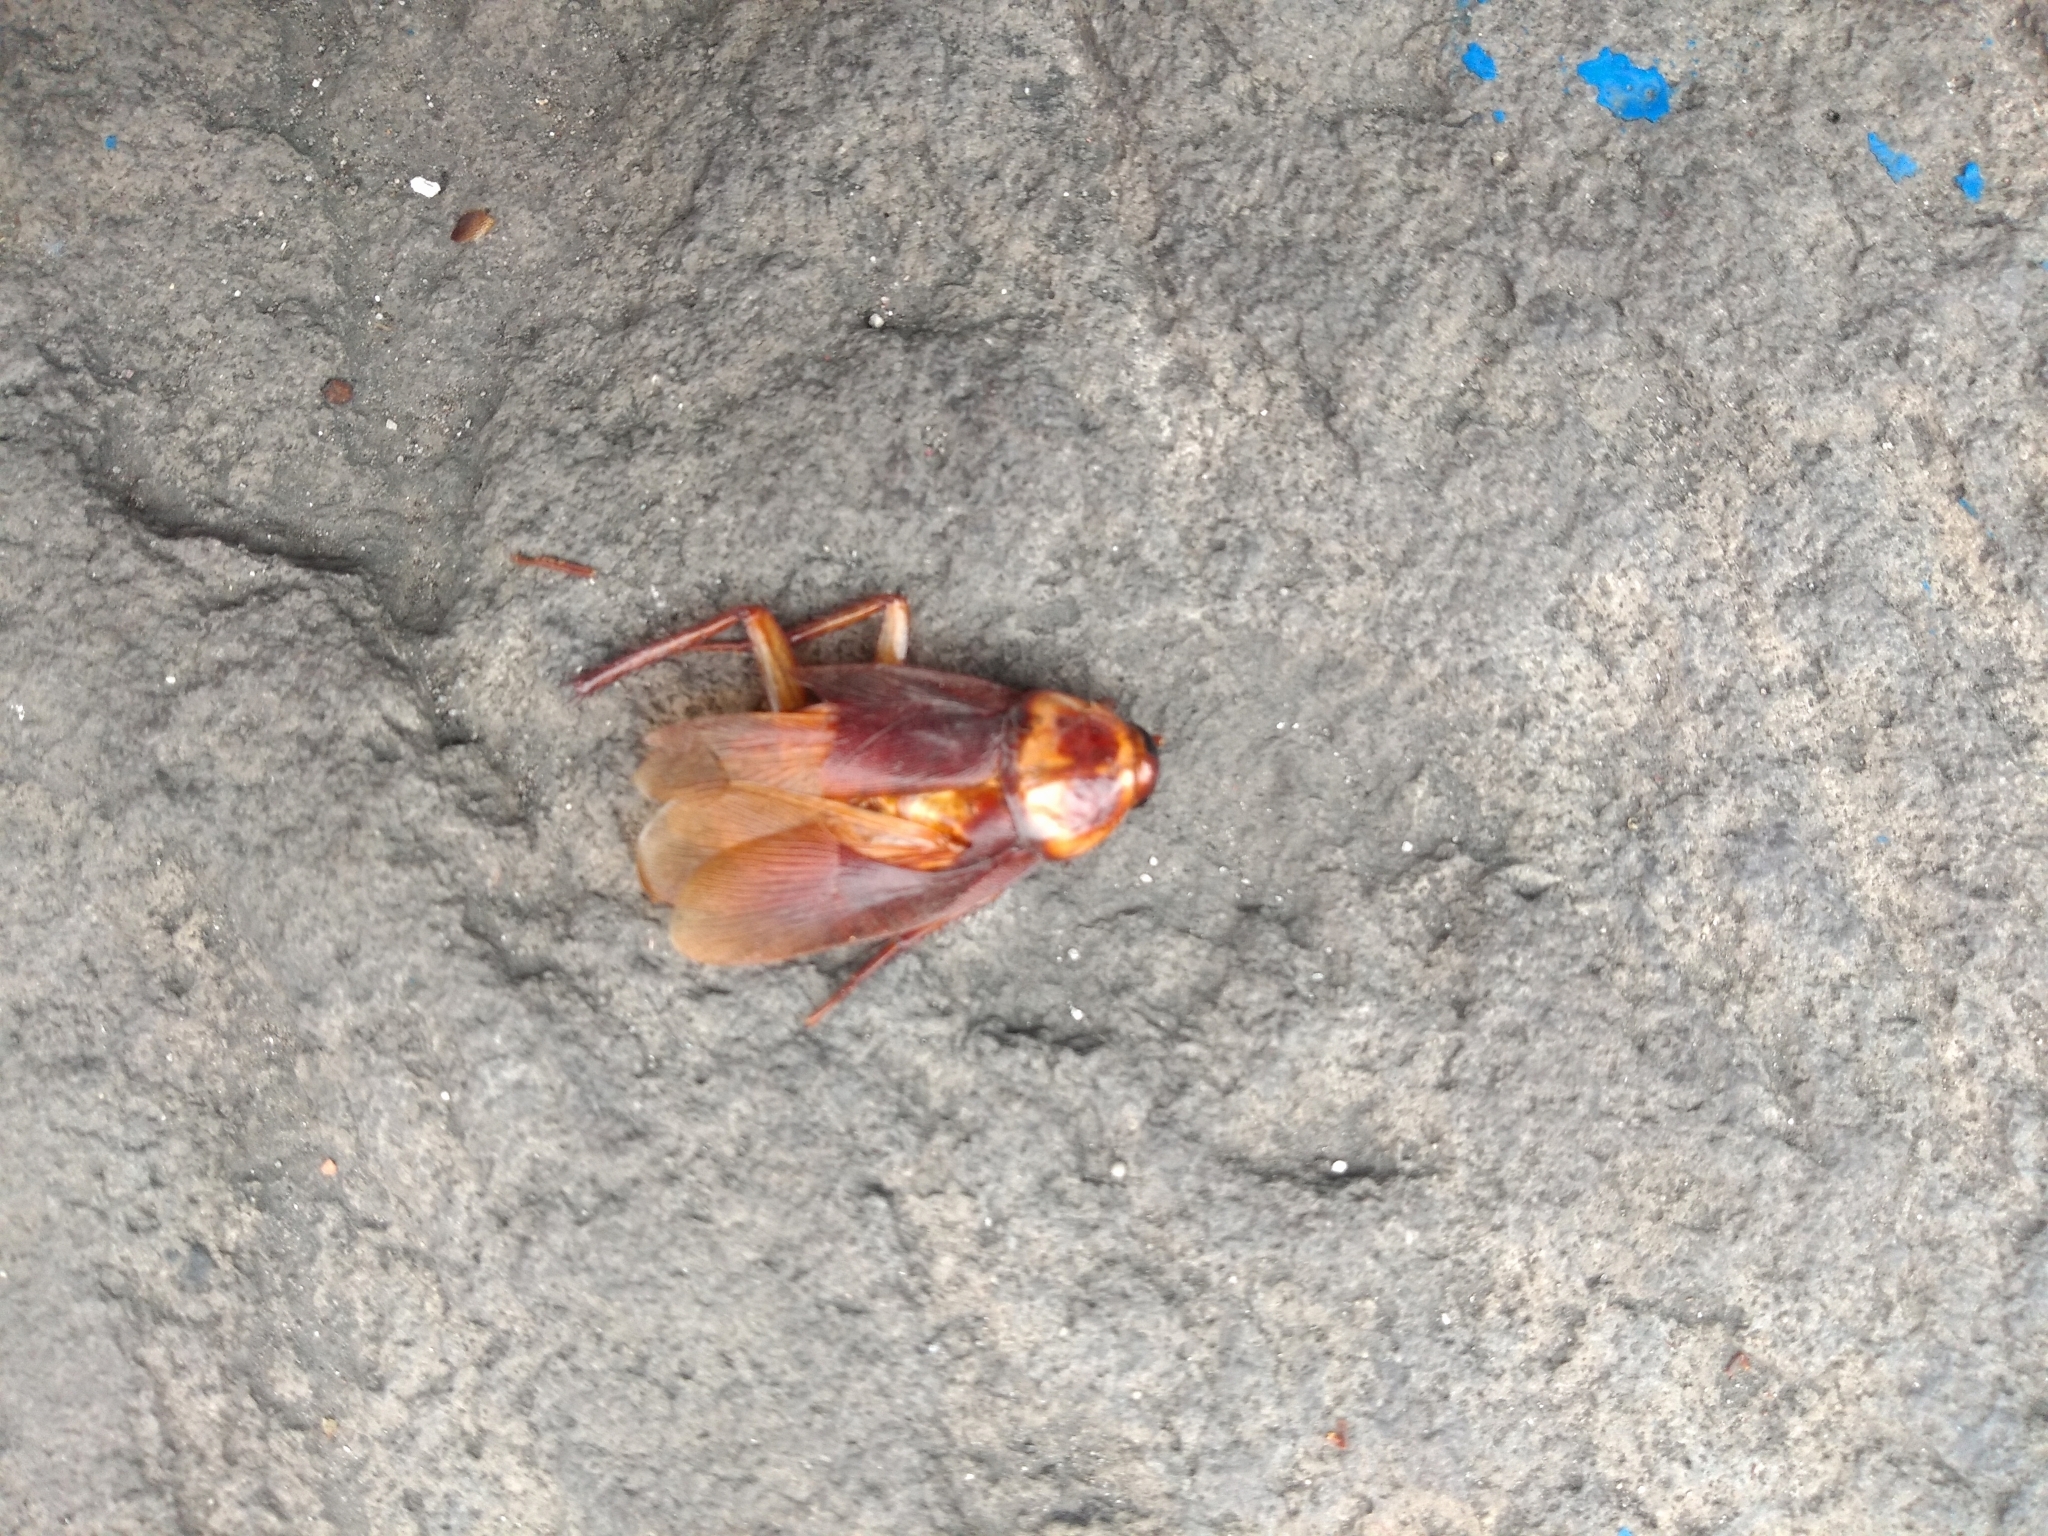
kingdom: Animalia
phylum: Arthropoda
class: Insecta
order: Blattodea
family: Blattidae
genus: Periplaneta
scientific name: Periplaneta americana
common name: American cockroach
